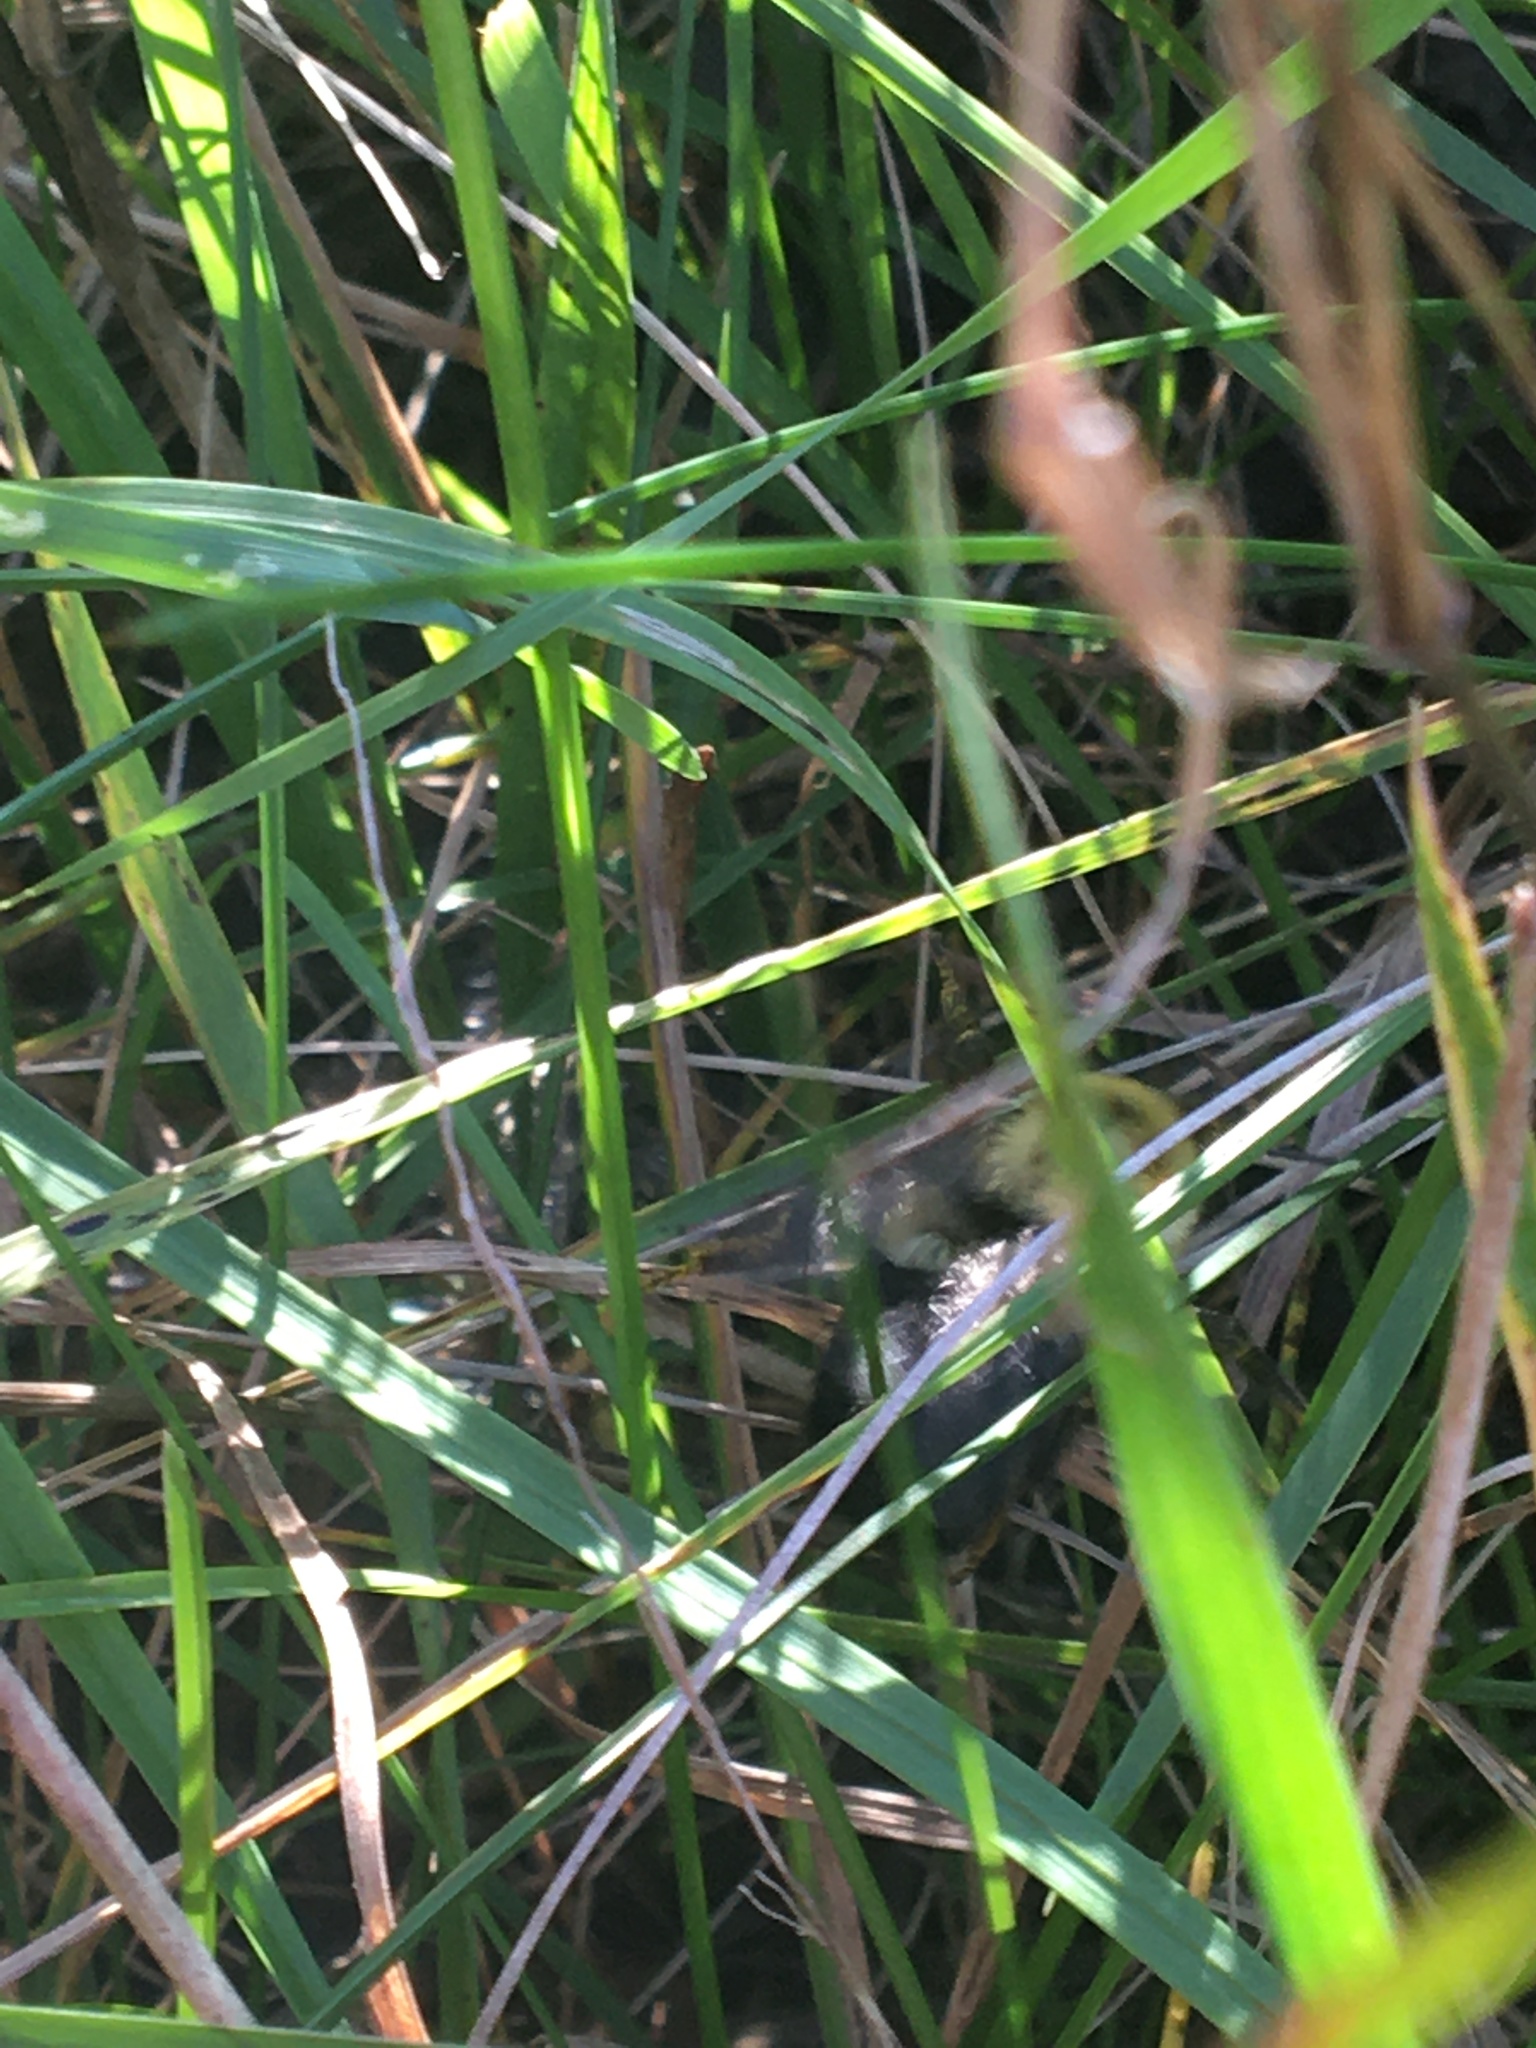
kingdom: Animalia
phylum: Arthropoda
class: Insecta
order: Hymenoptera
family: Apidae
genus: Bombus
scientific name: Bombus impatiens
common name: Common eastern bumble bee
